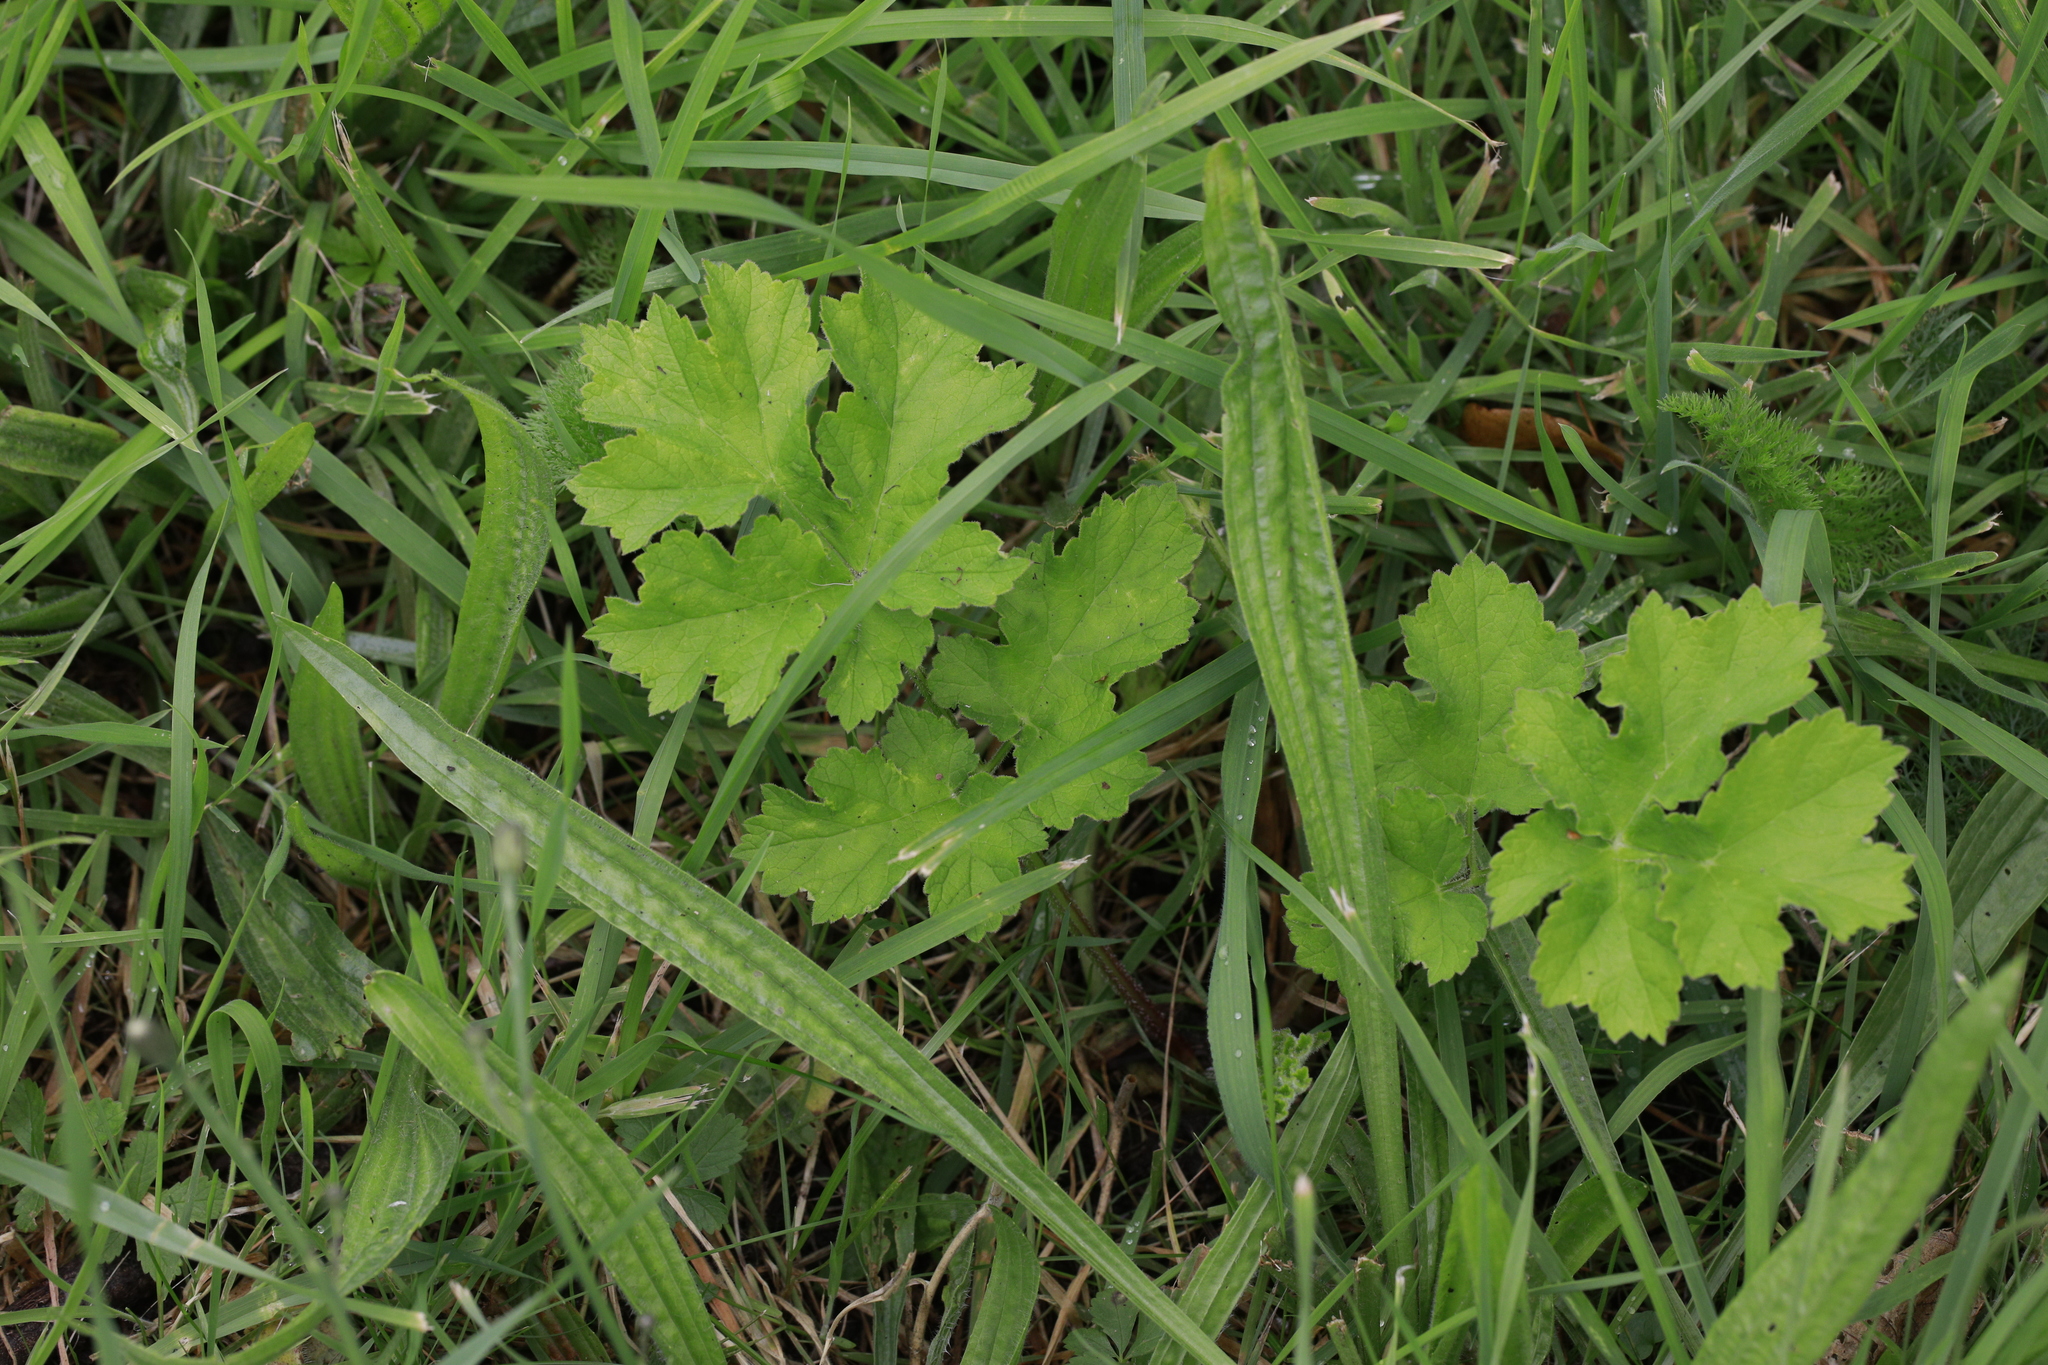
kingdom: Plantae
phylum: Tracheophyta
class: Magnoliopsida
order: Apiales
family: Apiaceae
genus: Heracleum
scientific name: Heracleum sphondylium
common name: Hogweed
